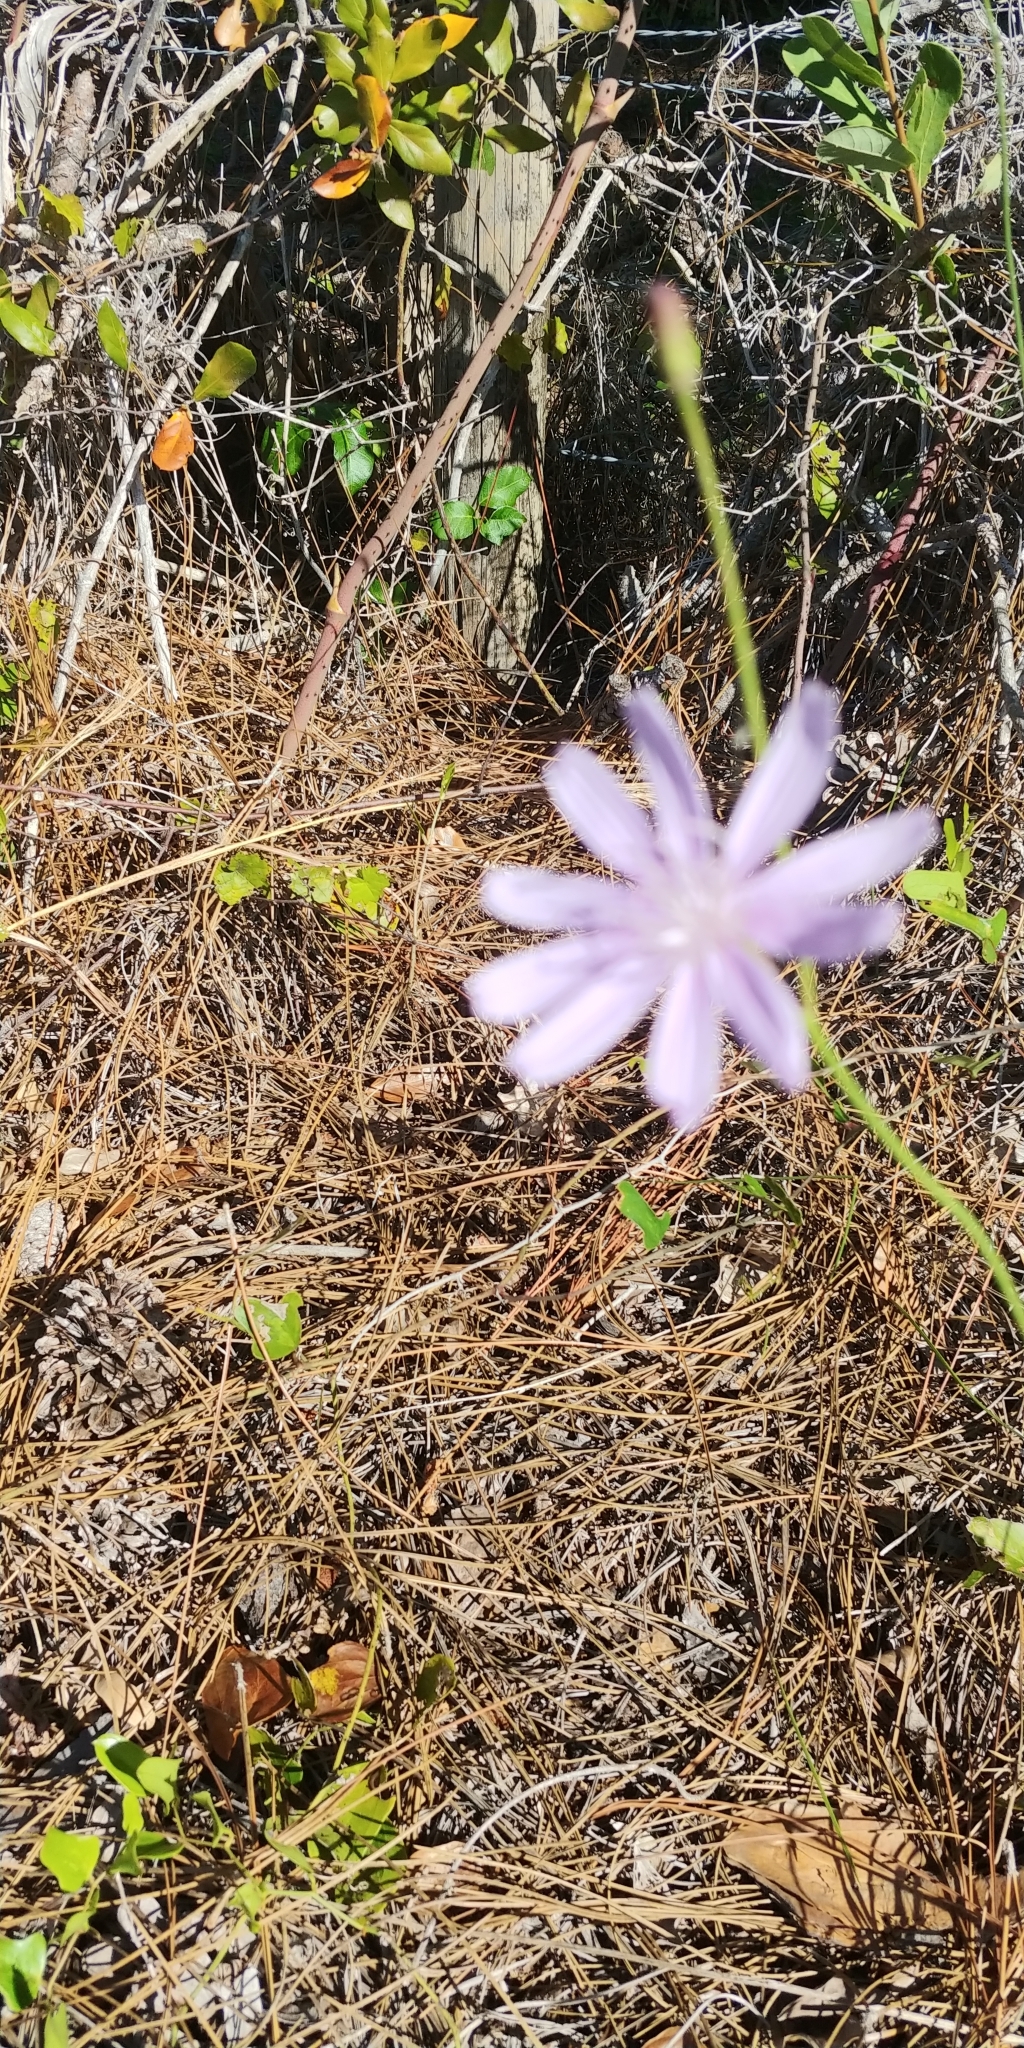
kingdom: Plantae
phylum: Tracheophyta
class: Magnoliopsida
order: Asterales
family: Asteraceae
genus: Lygodesmia
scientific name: Lygodesmia aphylla
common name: Rose-rush
